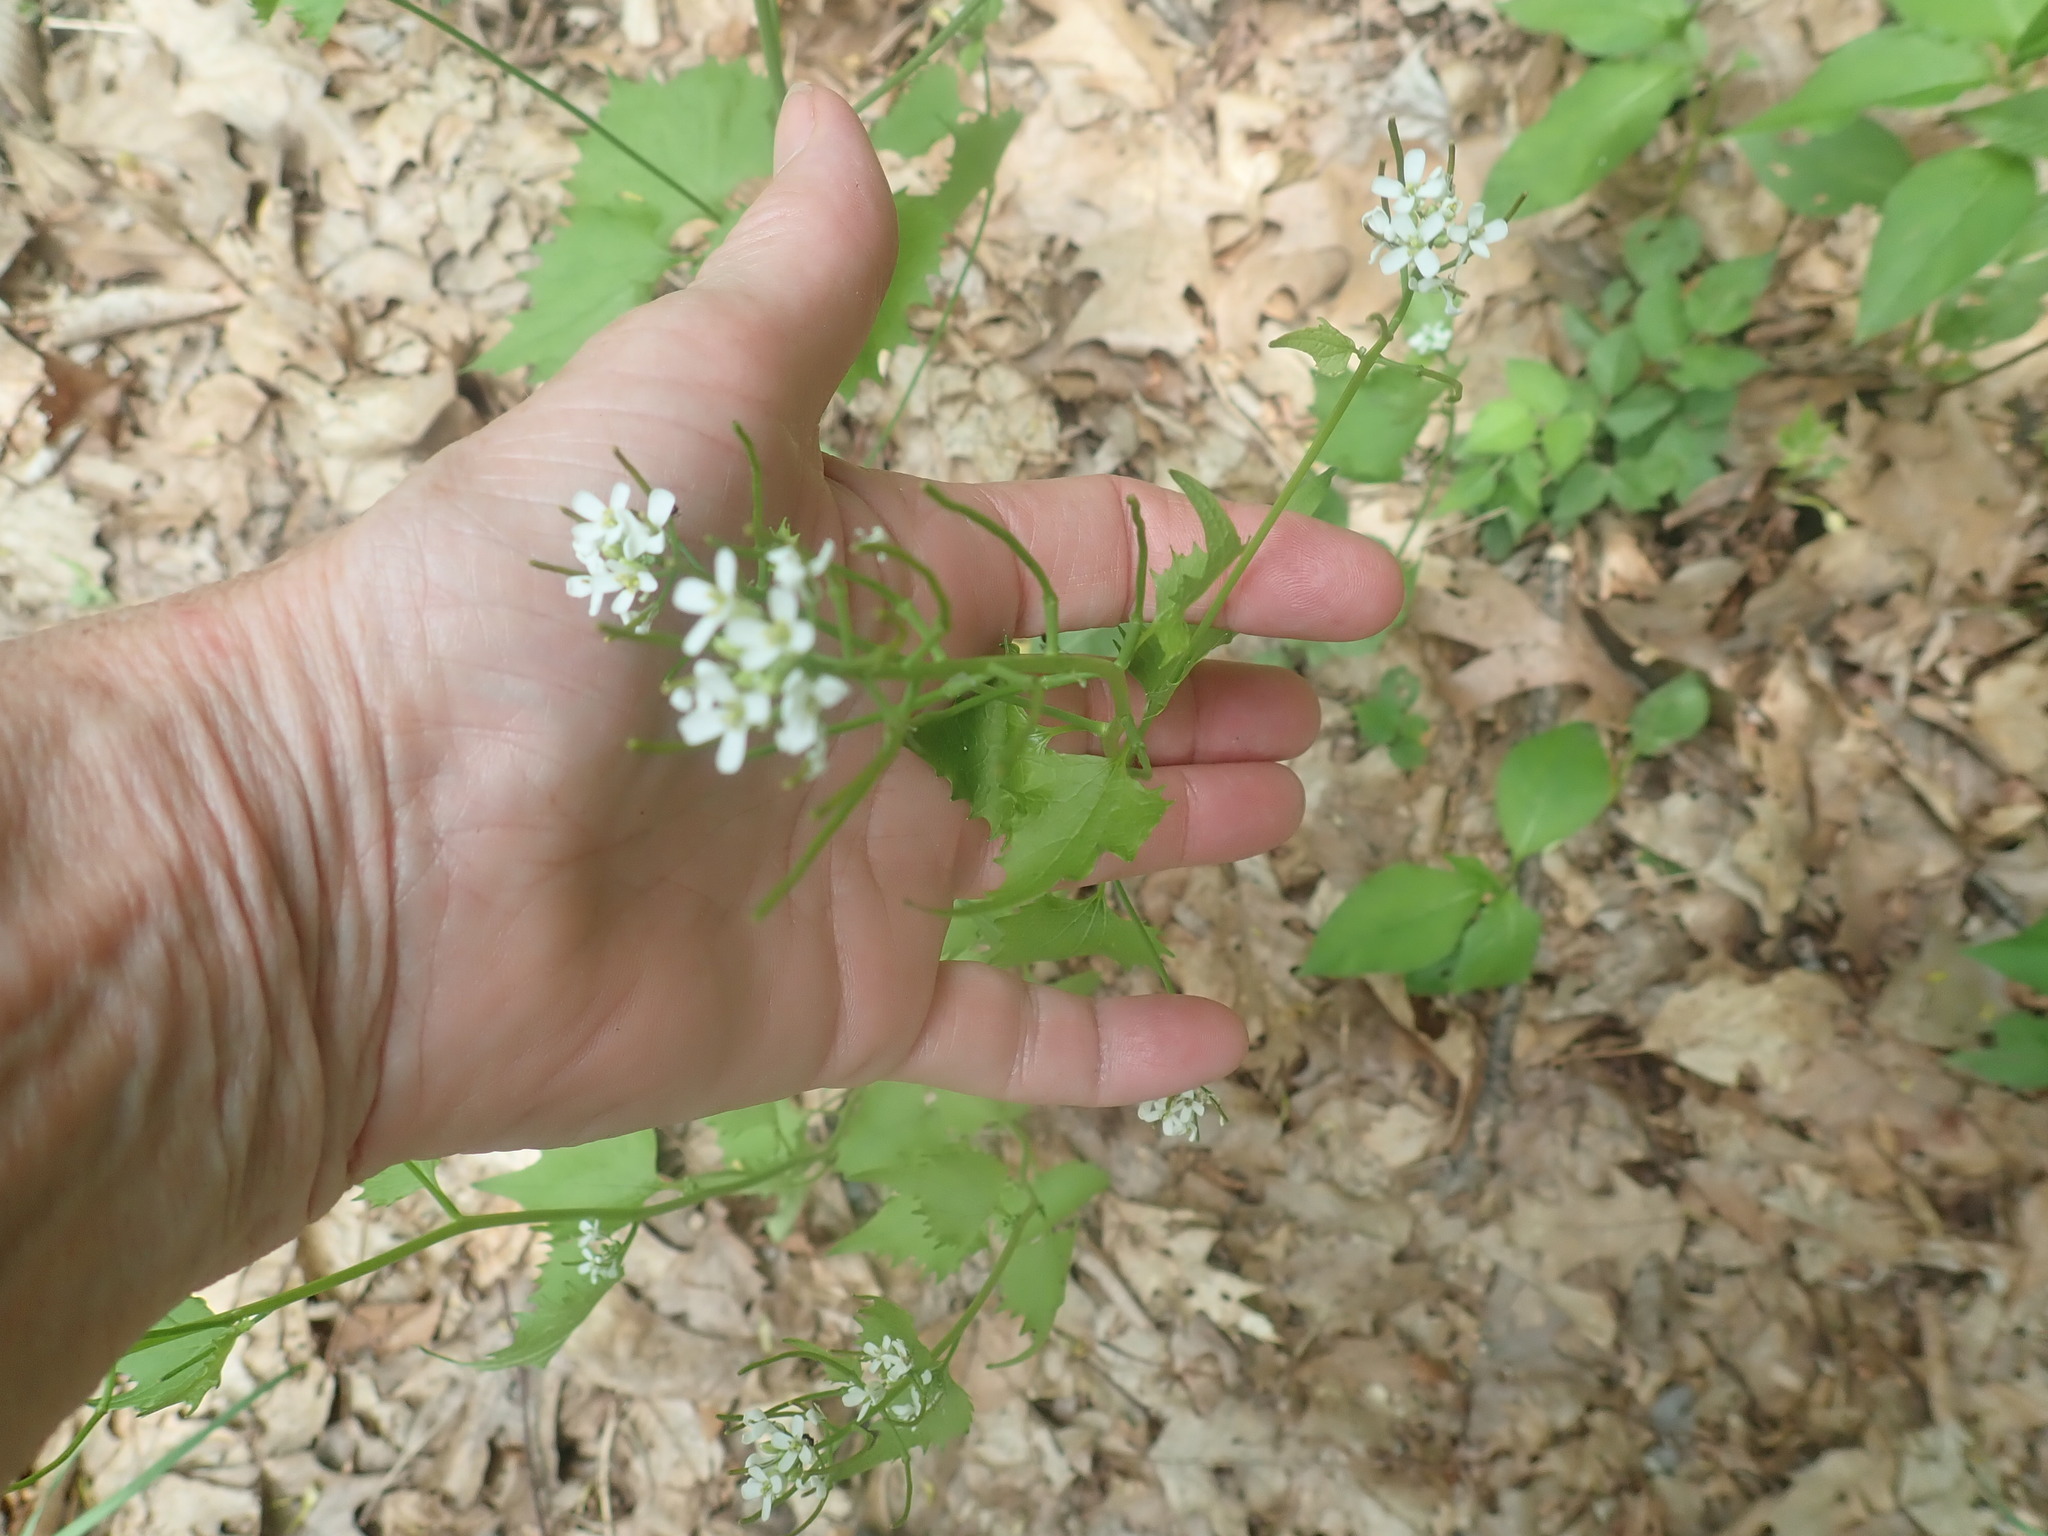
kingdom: Plantae
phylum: Tracheophyta
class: Magnoliopsida
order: Brassicales
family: Brassicaceae
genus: Alliaria
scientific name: Alliaria petiolata
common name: Garlic mustard
